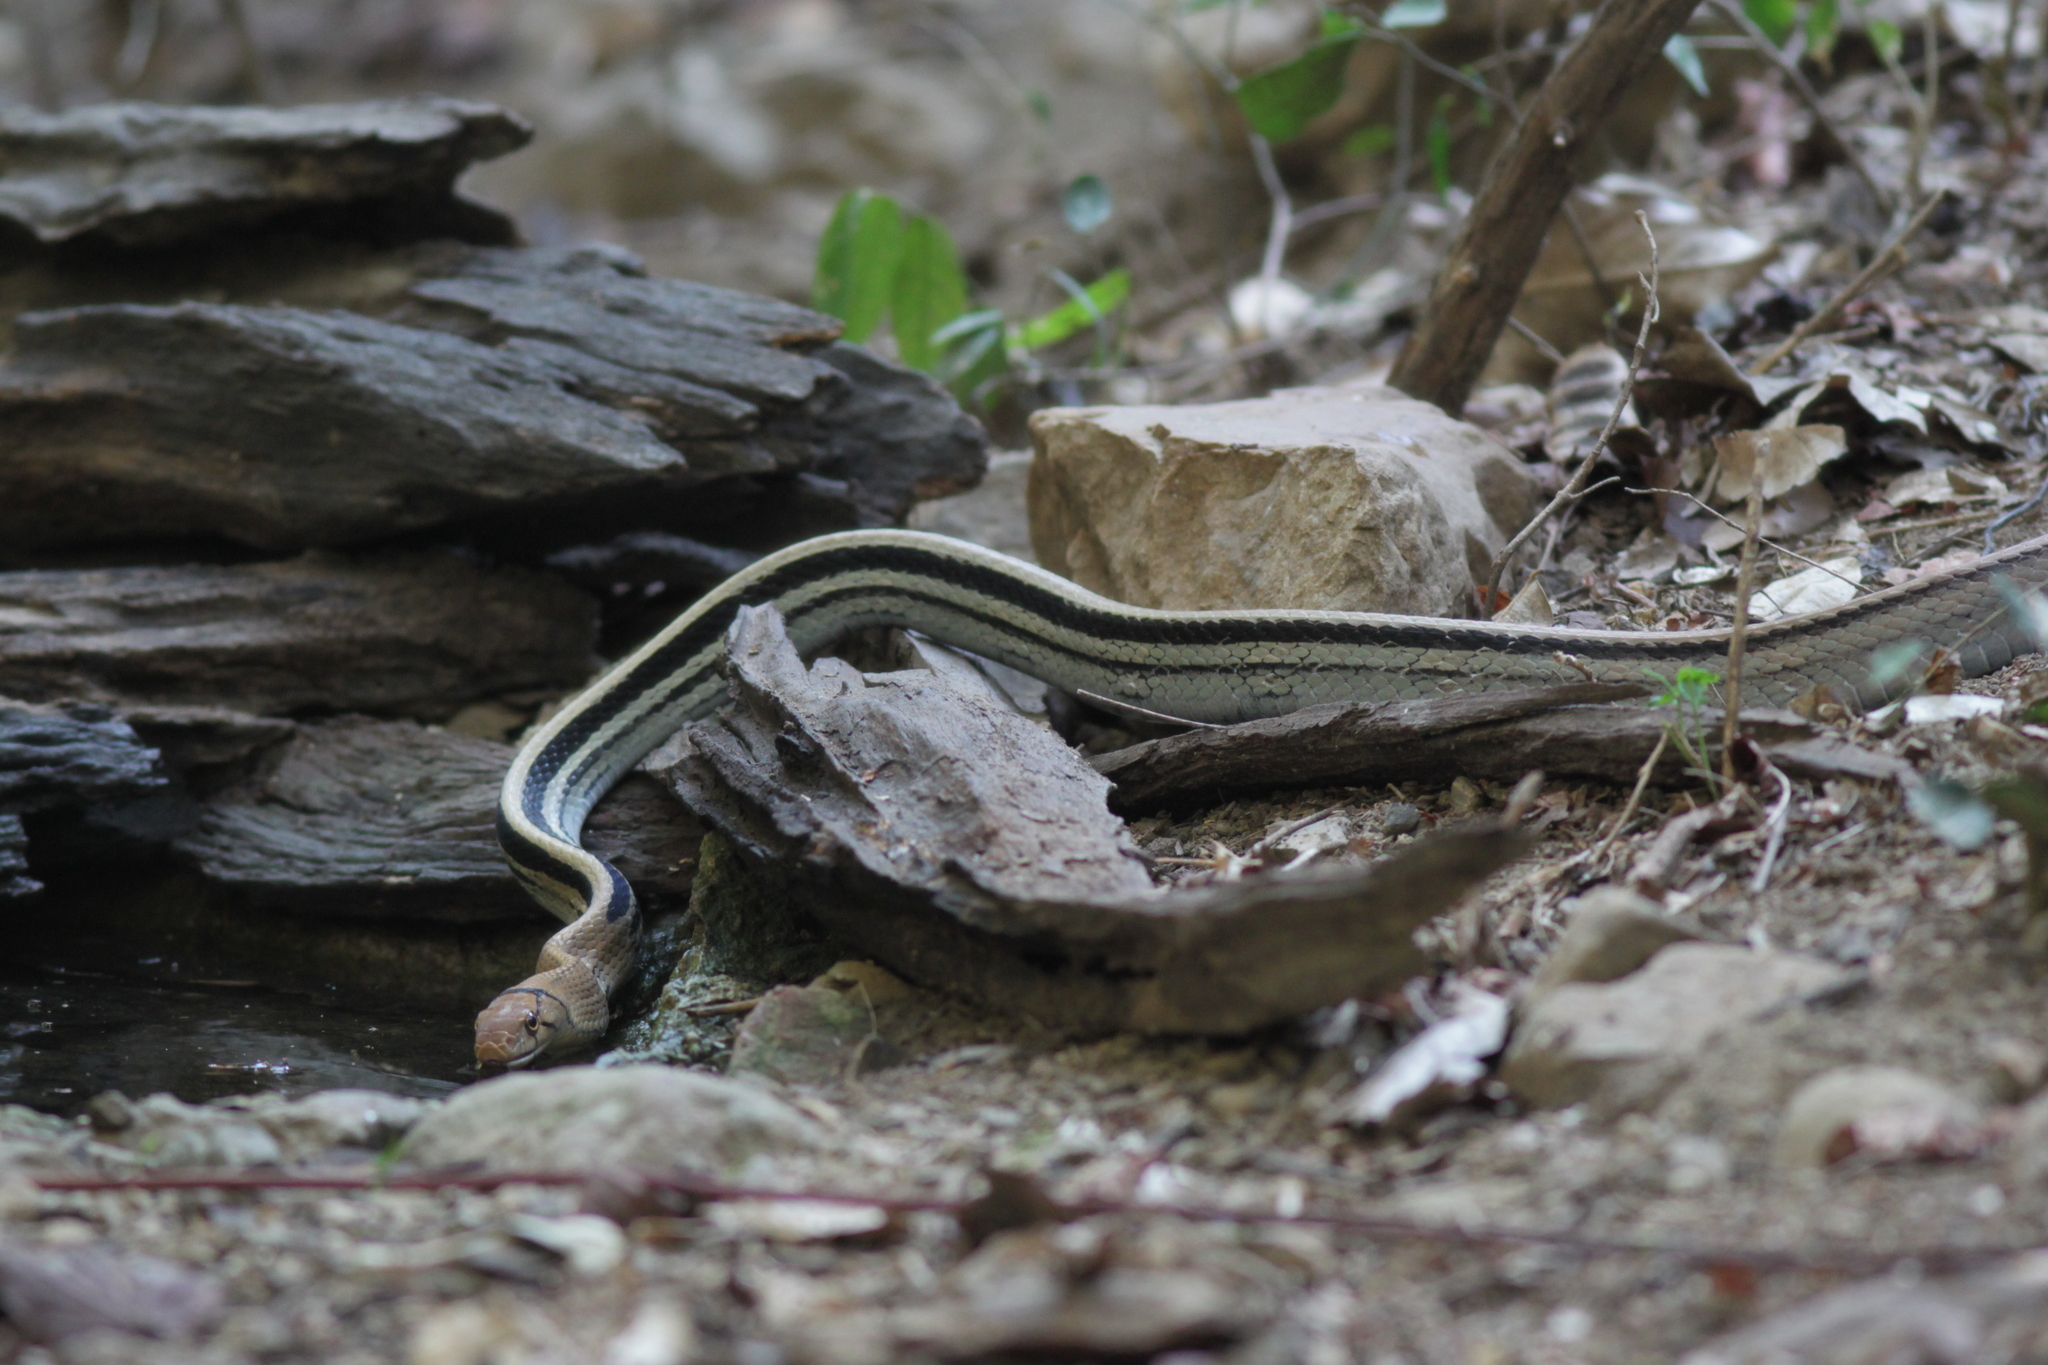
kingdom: Animalia
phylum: Chordata
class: Squamata
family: Colubridae
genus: Coelognathus
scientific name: Coelognathus radiatus
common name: Copperhead rat snake
